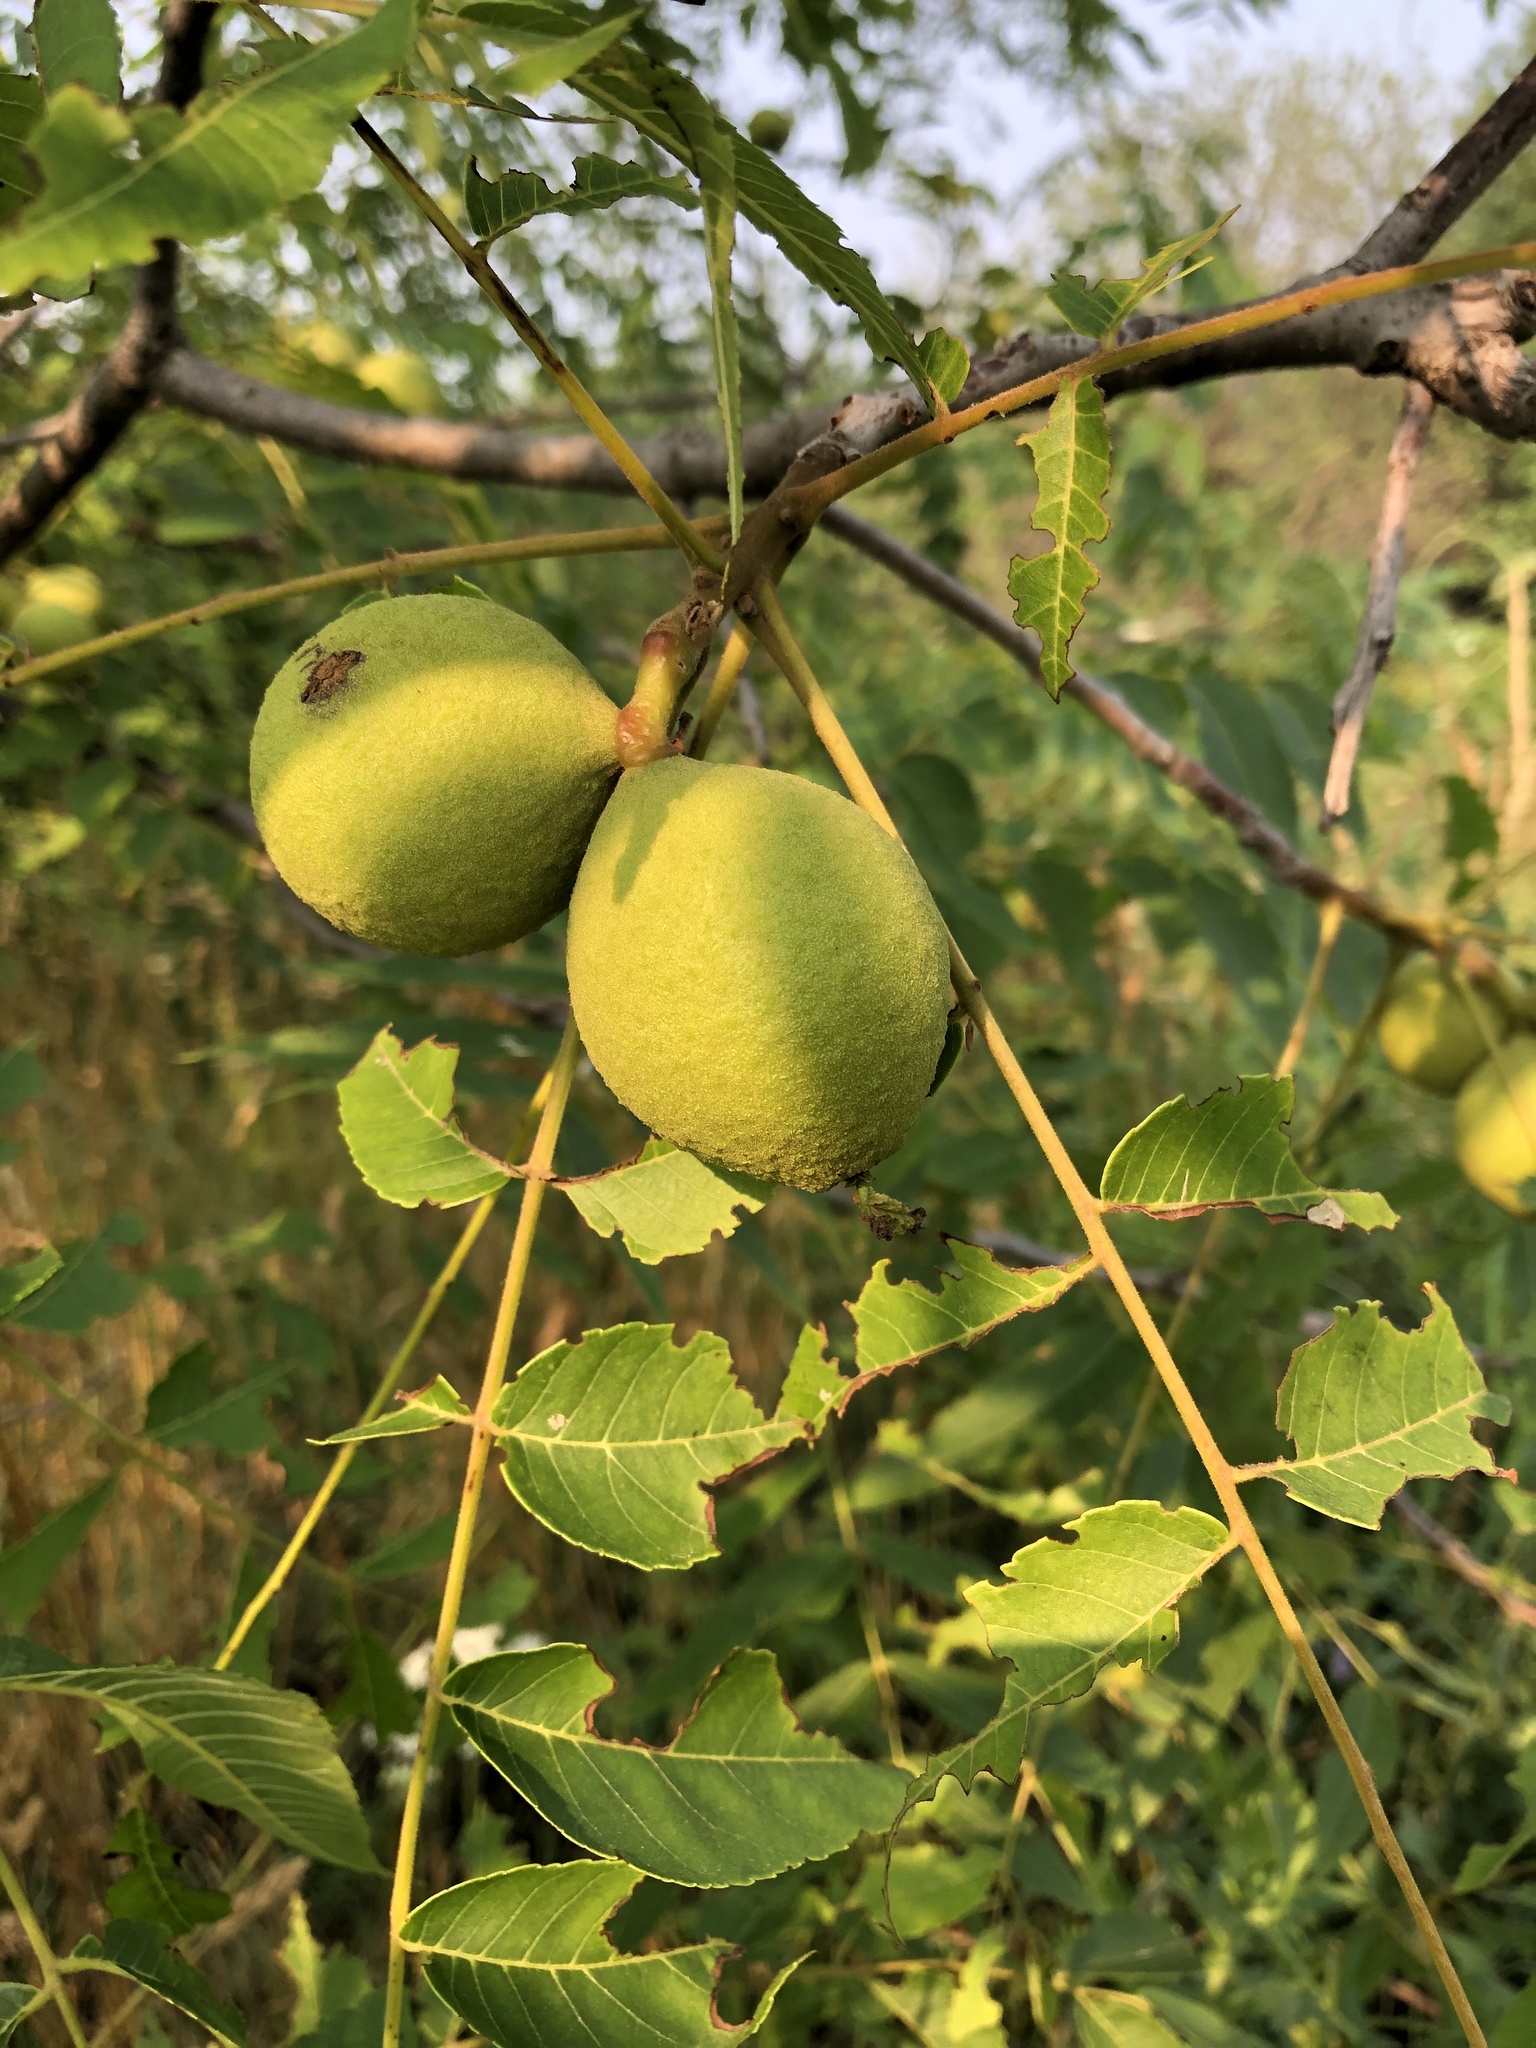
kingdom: Plantae
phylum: Tracheophyta
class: Magnoliopsida
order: Fagales
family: Juglandaceae
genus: Juglans
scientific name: Juglans nigra
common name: Black walnut
